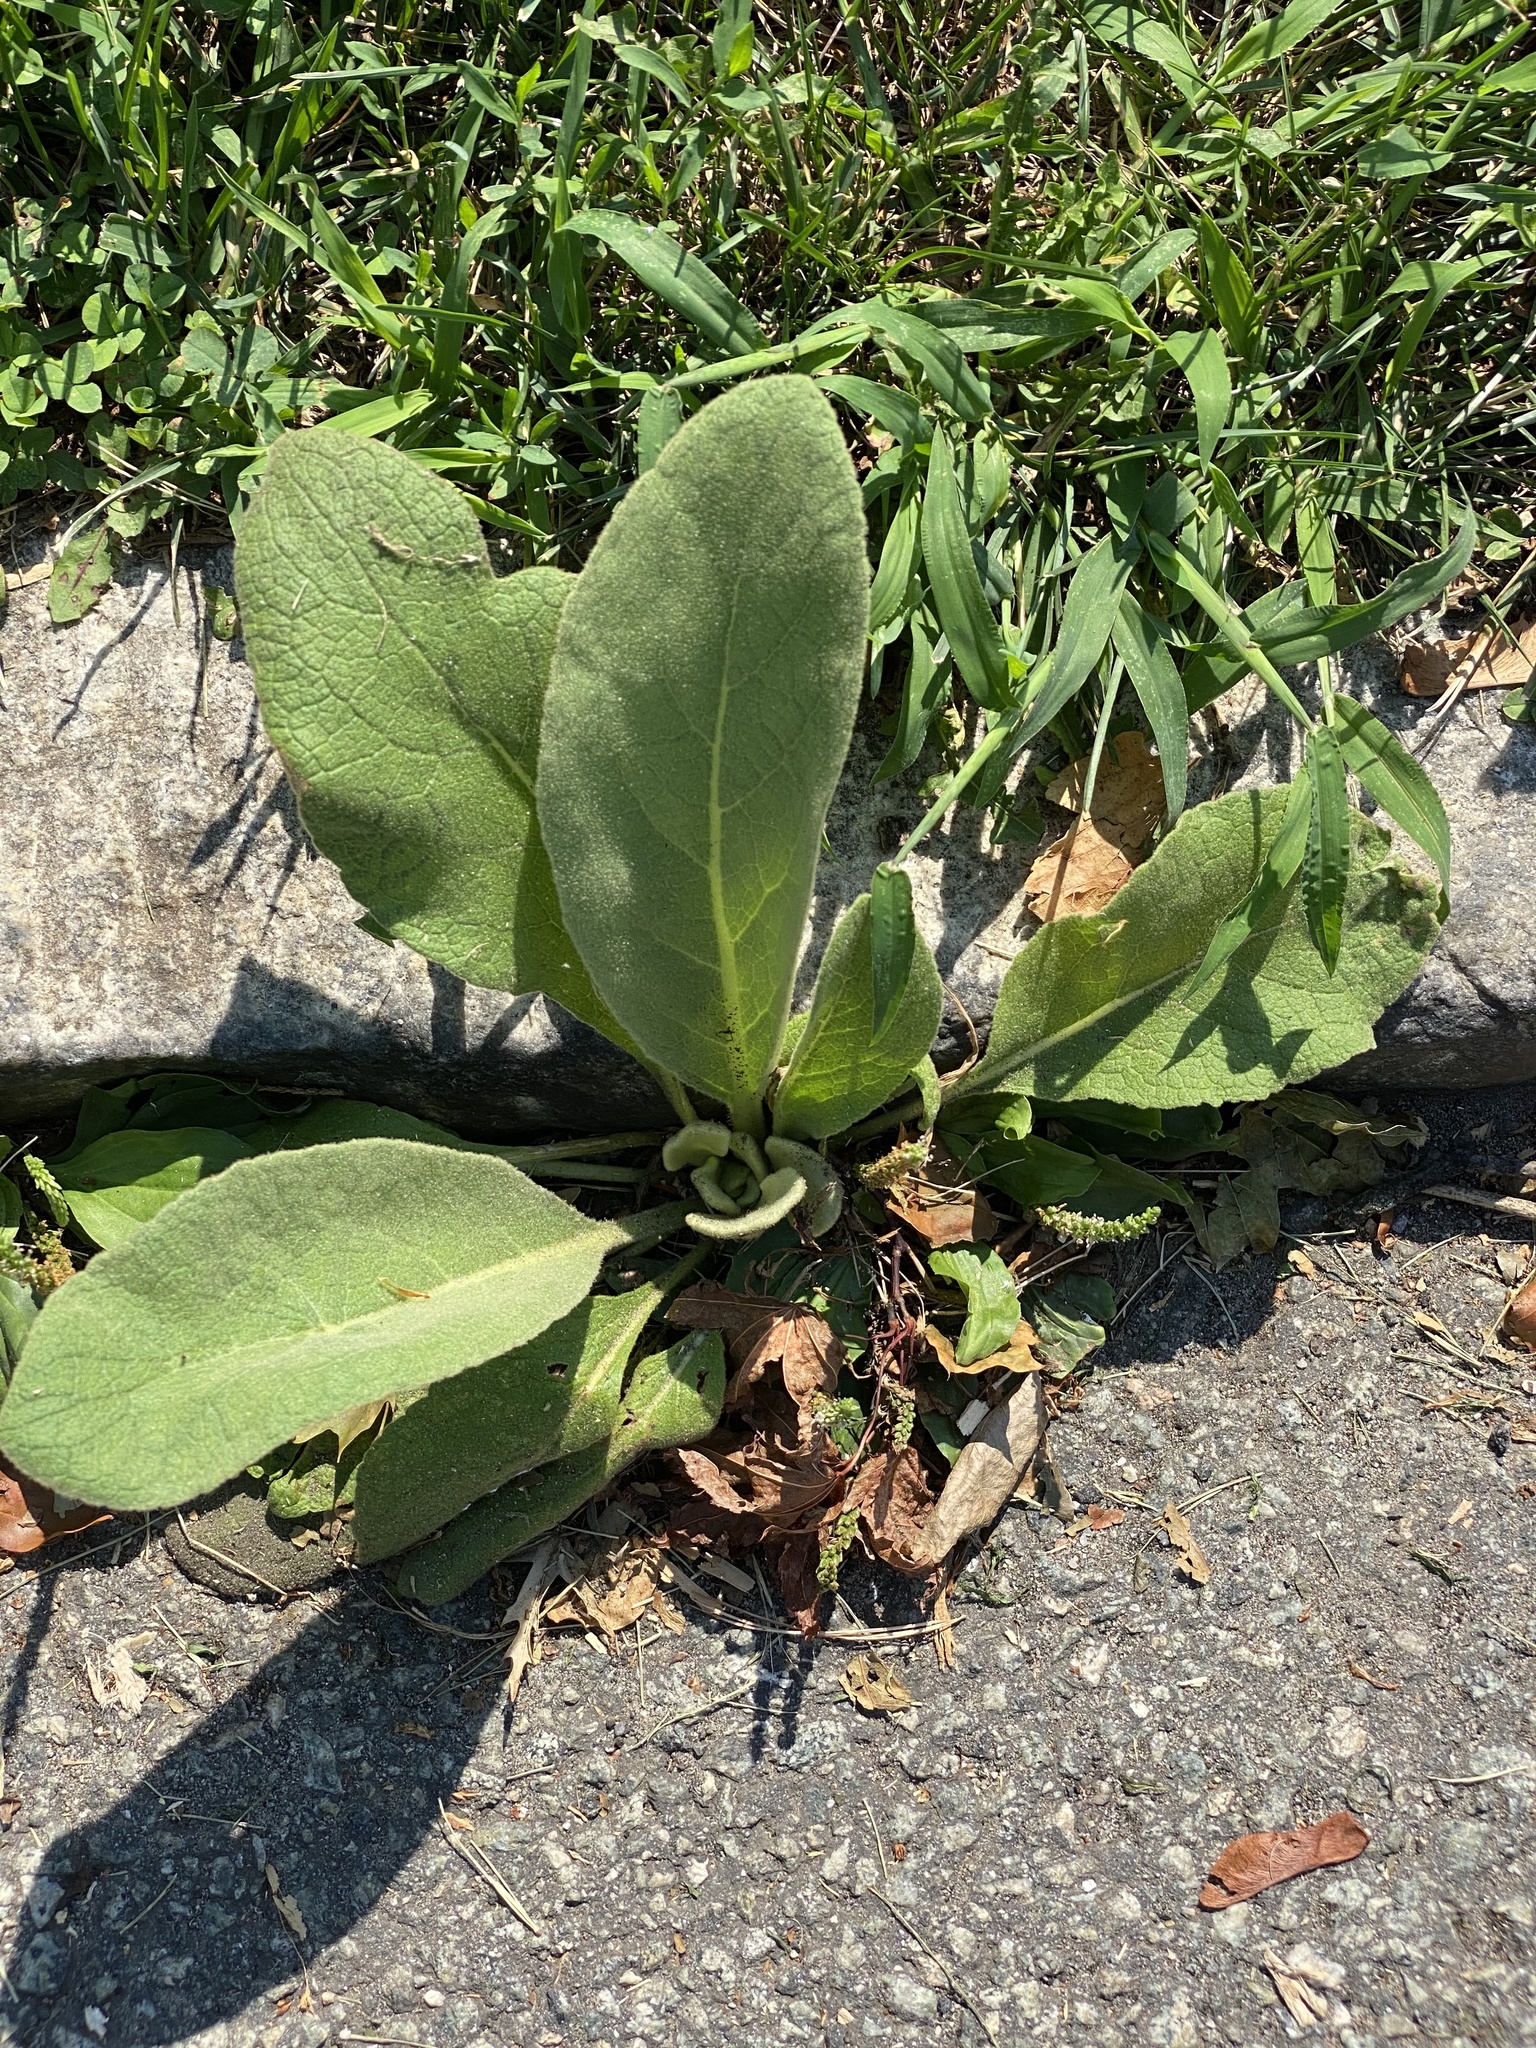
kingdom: Plantae
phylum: Tracheophyta
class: Magnoliopsida
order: Lamiales
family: Scrophulariaceae
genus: Verbascum
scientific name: Verbascum thapsus
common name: Common mullein
